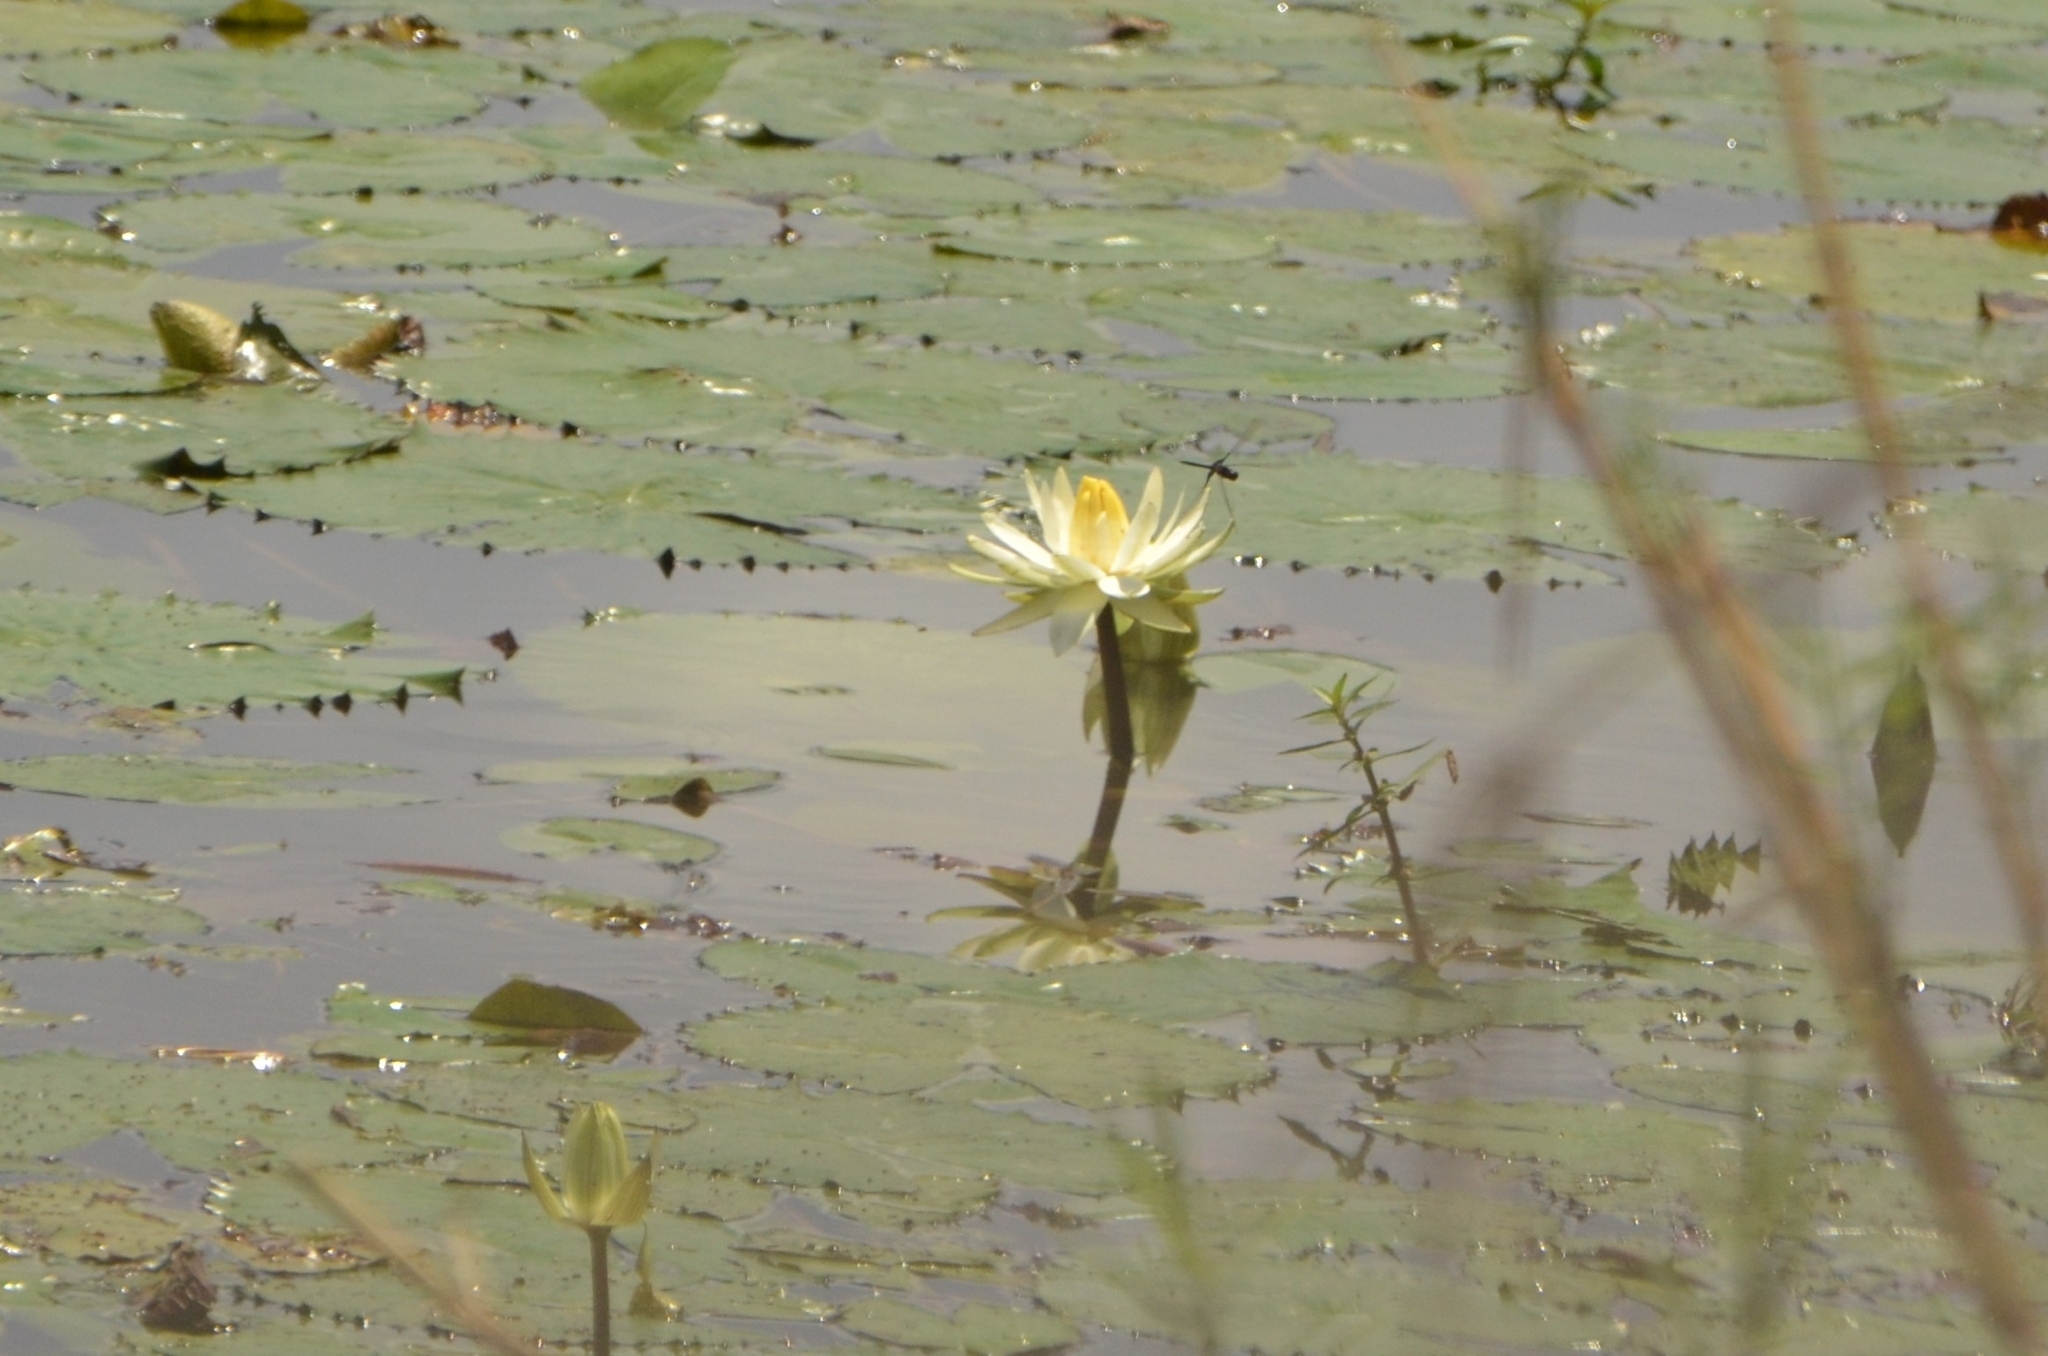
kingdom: Plantae
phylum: Tracheophyta
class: Magnoliopsida
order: Nymphaeales
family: Nymphaeaceae
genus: Nymphaea
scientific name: Nymphaea lotus
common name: White egyptian lotus
